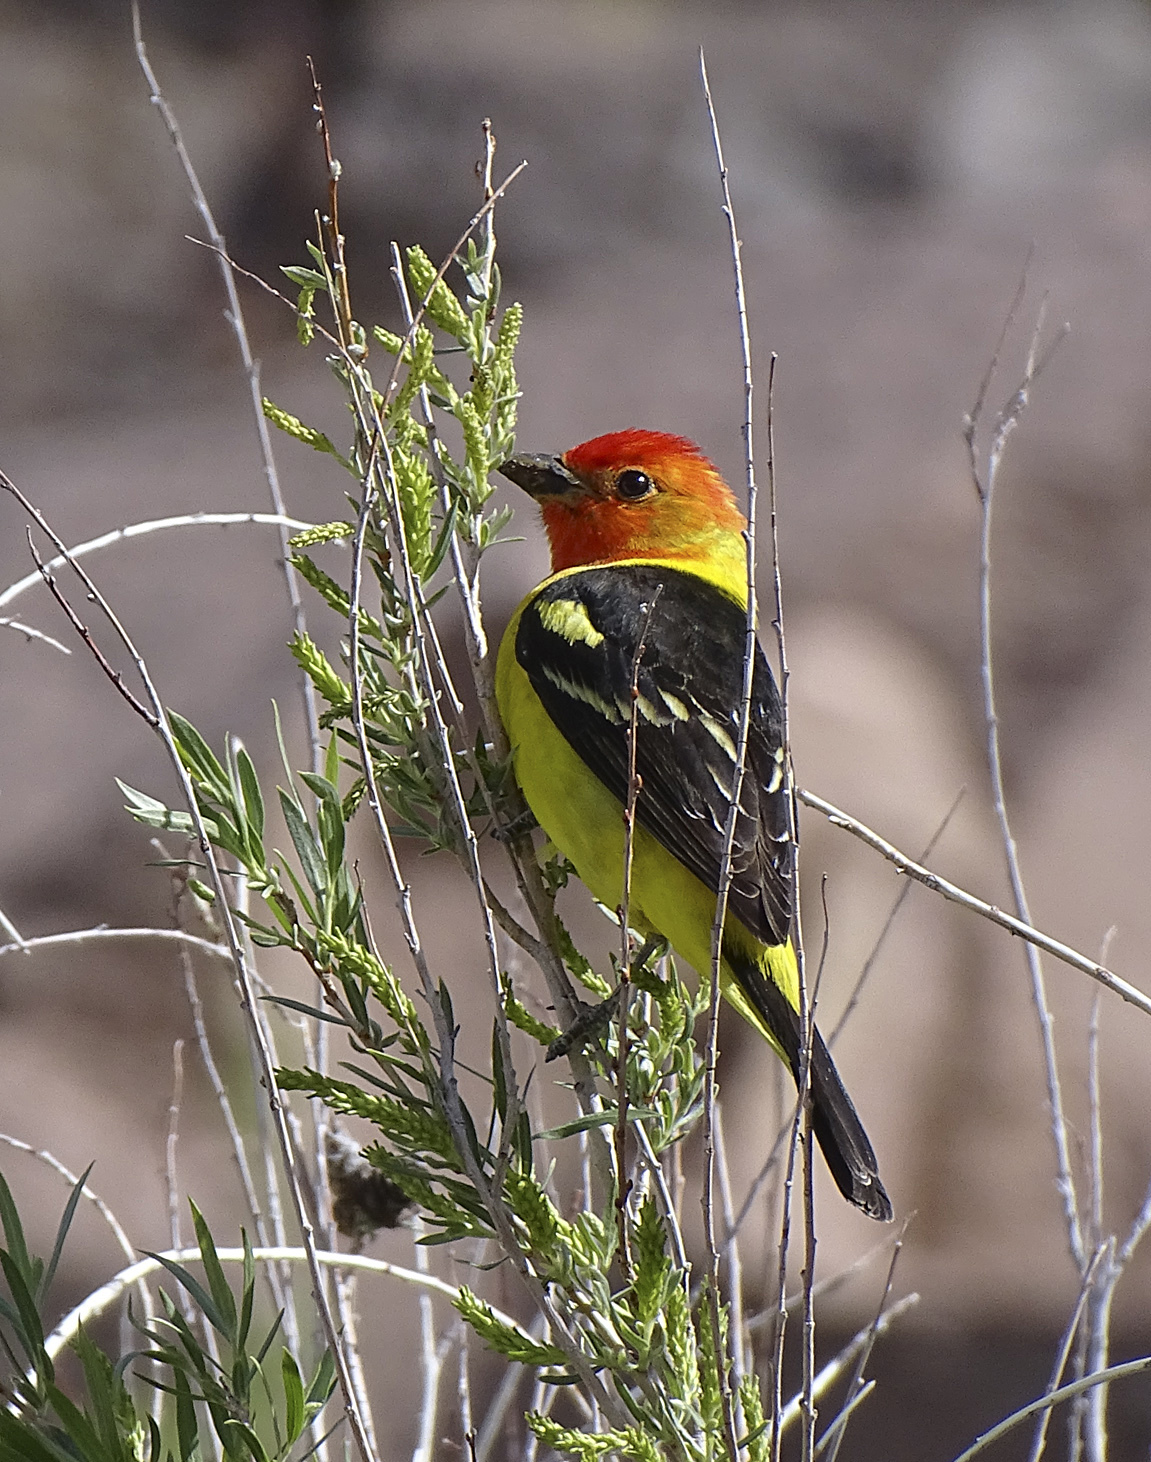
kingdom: Animalia
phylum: Chordata
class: Aves
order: Passeriformes
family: Cardinalidae
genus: Piranga
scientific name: Piranga ludoviciana
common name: Western tanager
